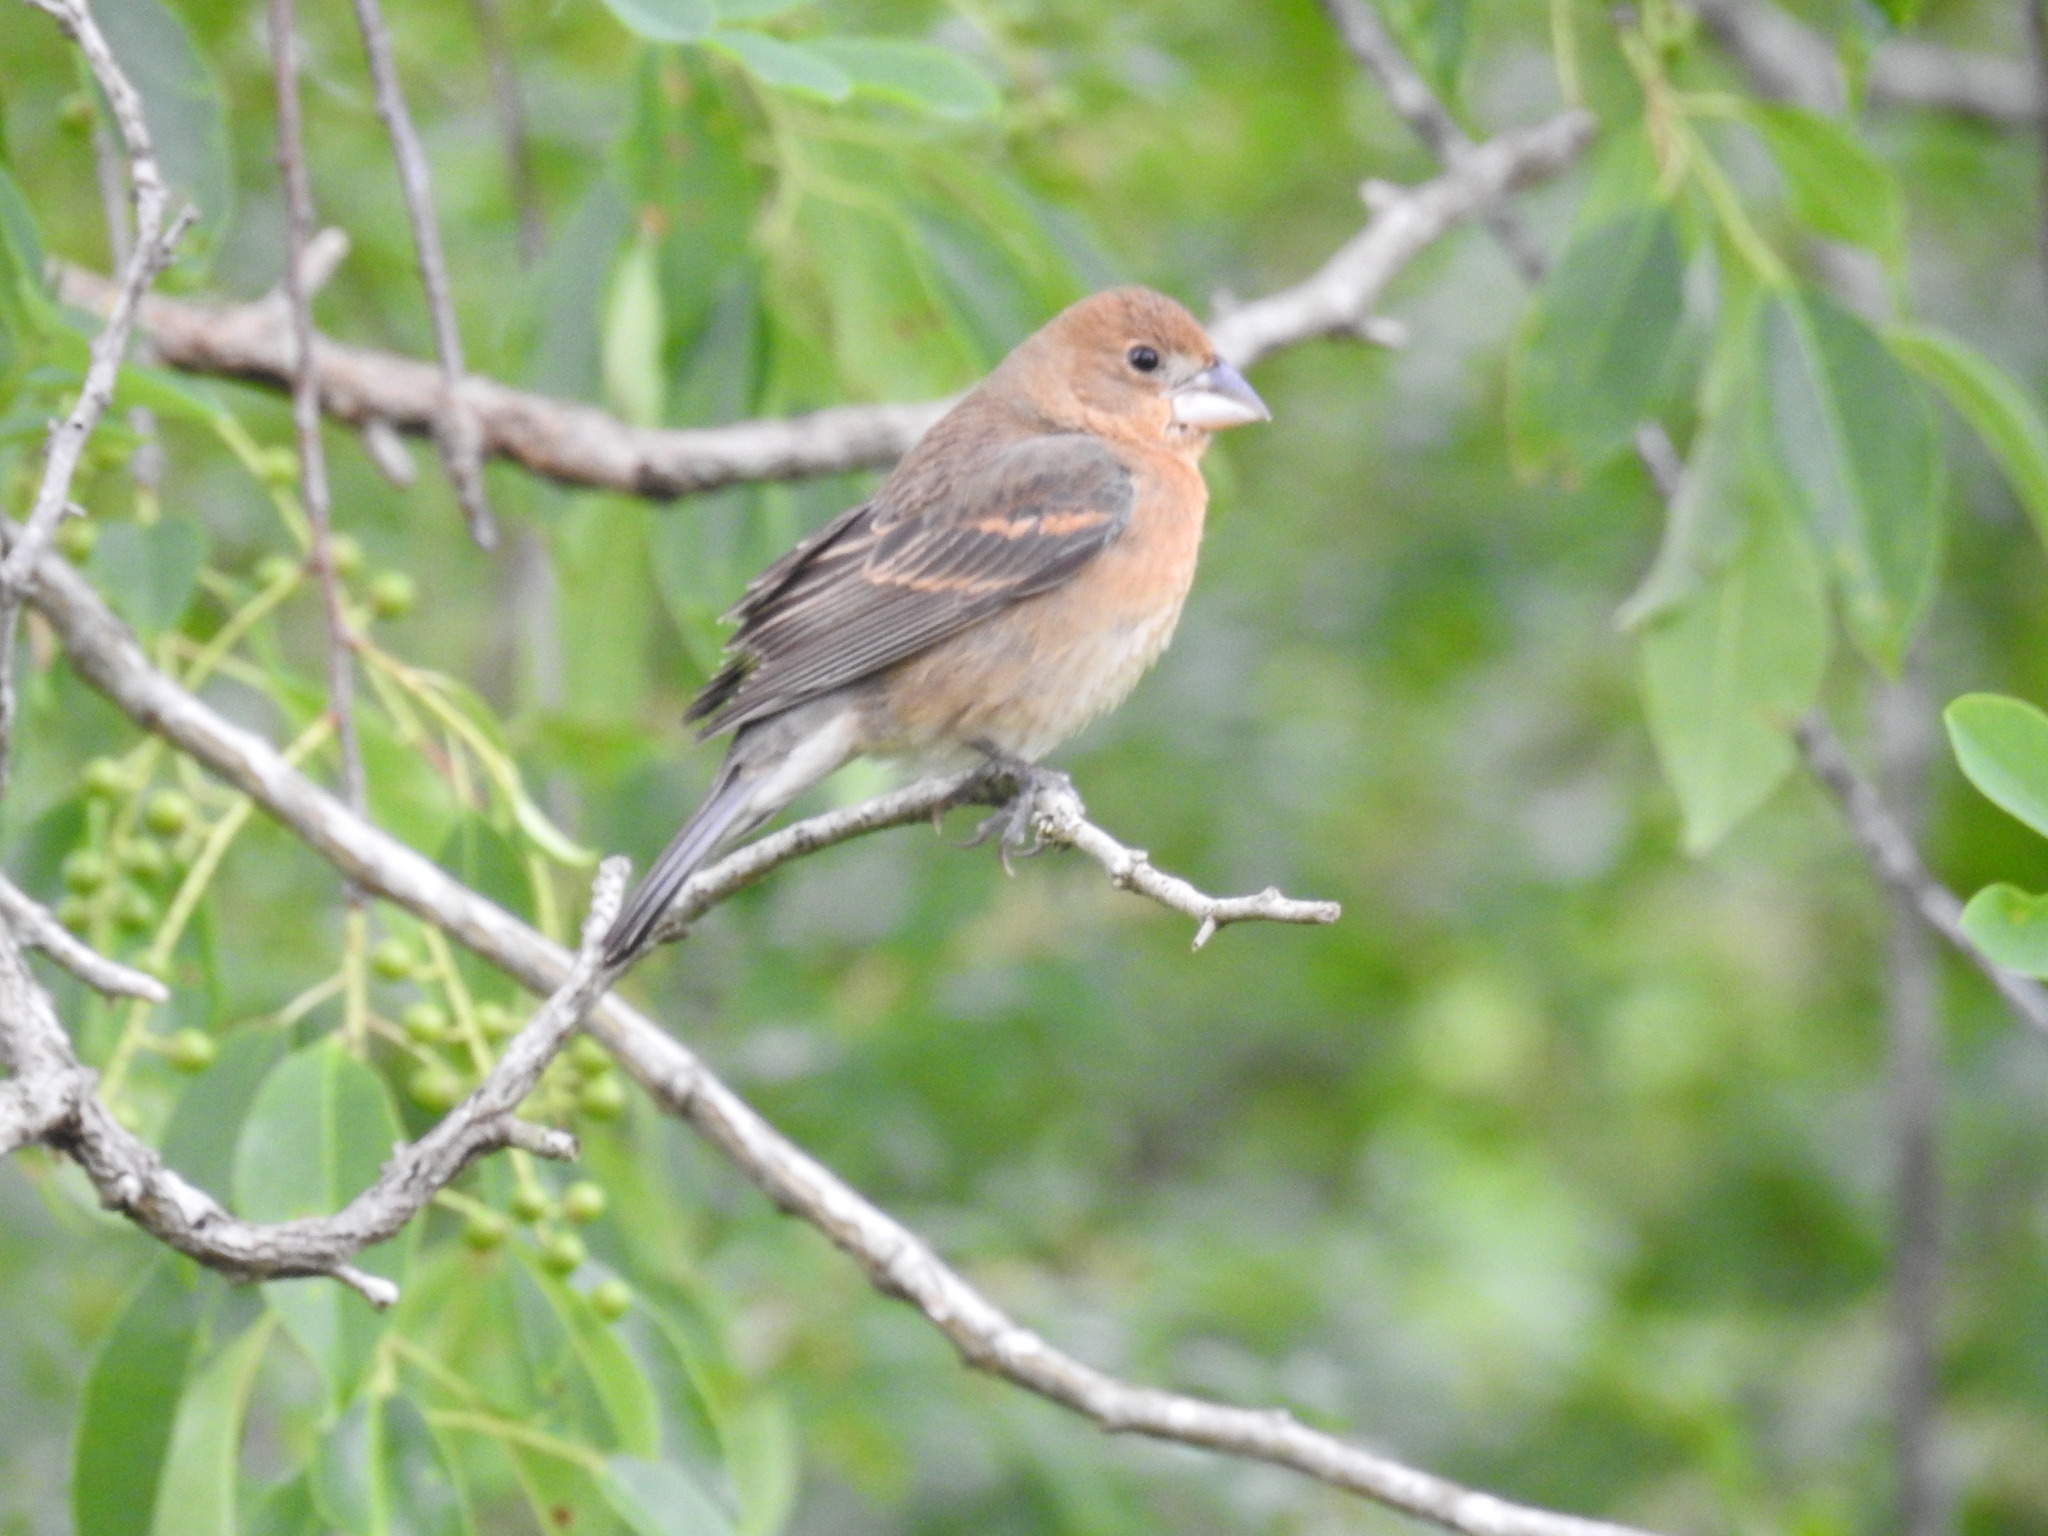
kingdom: Animalia
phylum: Chordata
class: Aves
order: Passeriformes
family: Cardinalidae
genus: Passerina
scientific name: Passerina caerulea
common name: Blue grosbeak
